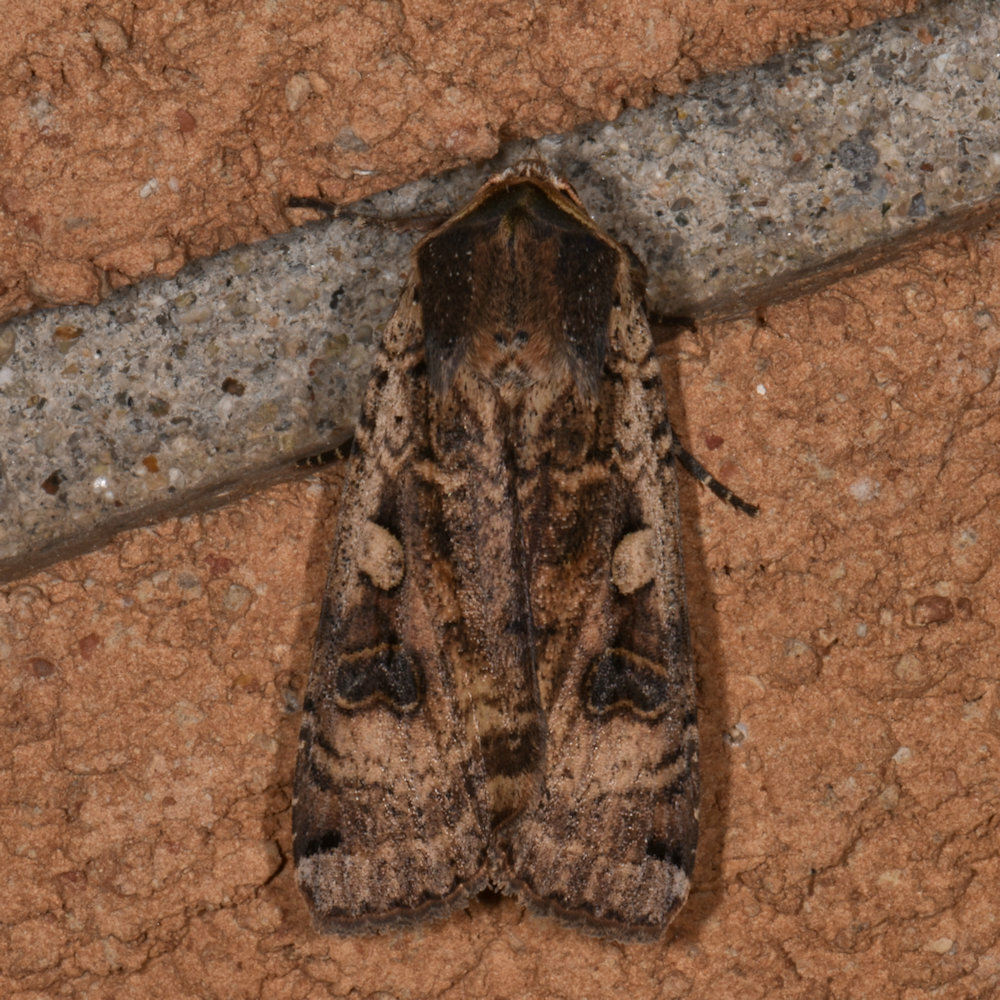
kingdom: Animalia
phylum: Arthropoda
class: Insecta
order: Lepidoptera
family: Noctuidae
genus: Noctua
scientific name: Noctua pronuba
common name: Large yellow underwing
